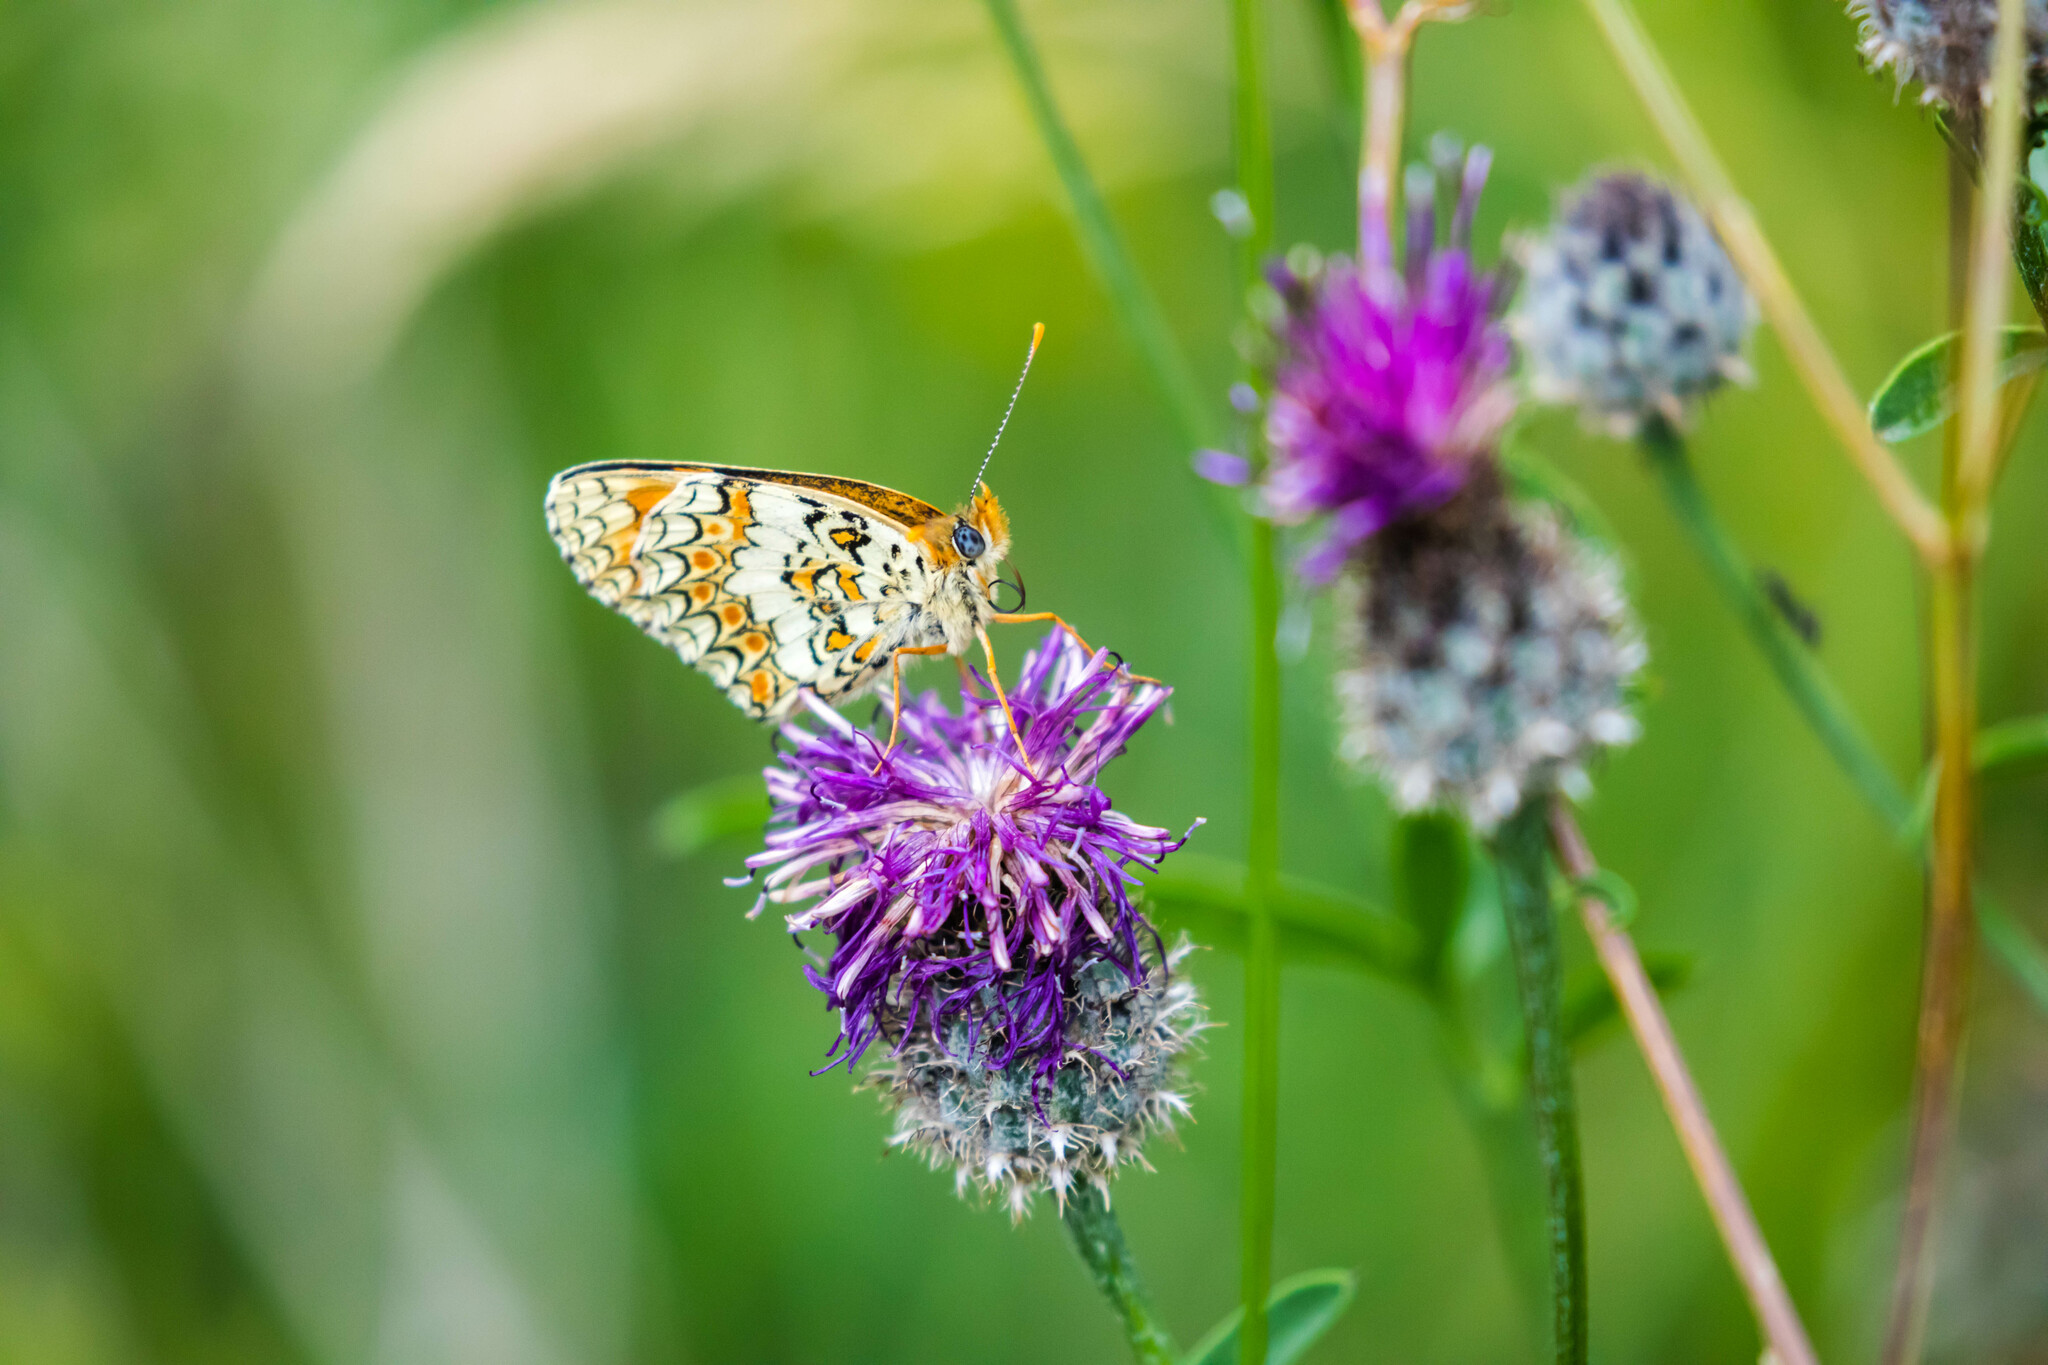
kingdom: Animalia
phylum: Arthropoda
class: Insecta
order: Lepidoptera
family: Nymphalidae
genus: Melitaea
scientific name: Melitaea phoebe
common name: Knapweed fritillary
